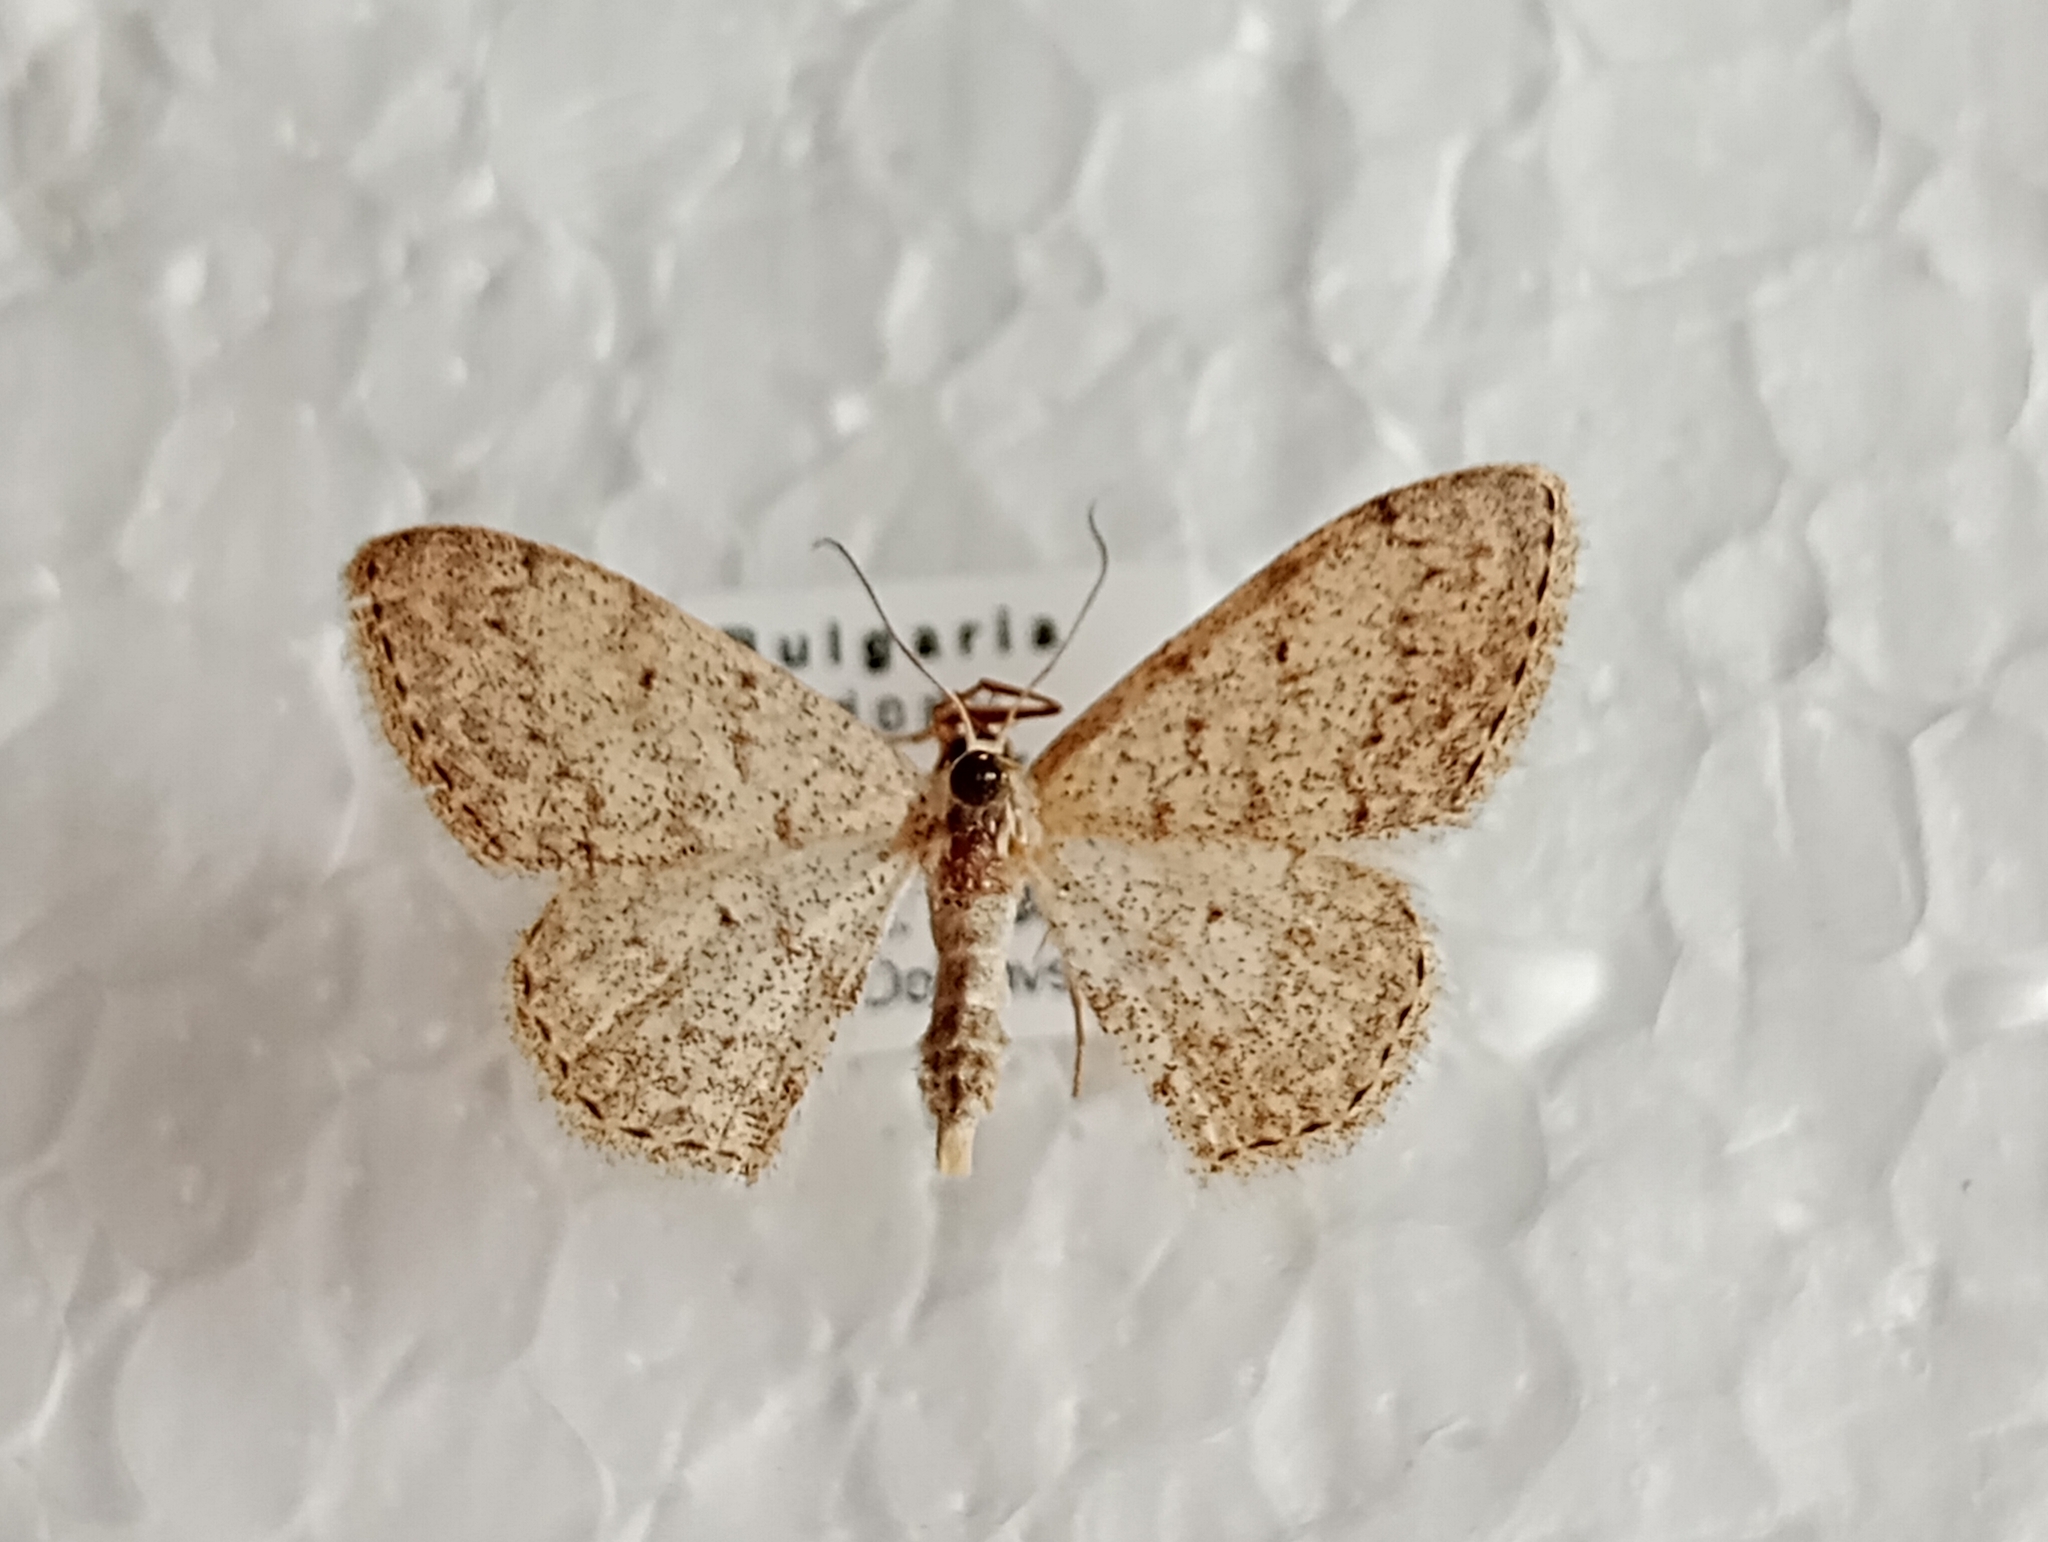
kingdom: Animalia
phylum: Arthropoda
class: Insecta
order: Lepidoptera
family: Geometridae
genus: Scopula
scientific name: Scopula marginepunctata
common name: Mullein wave
